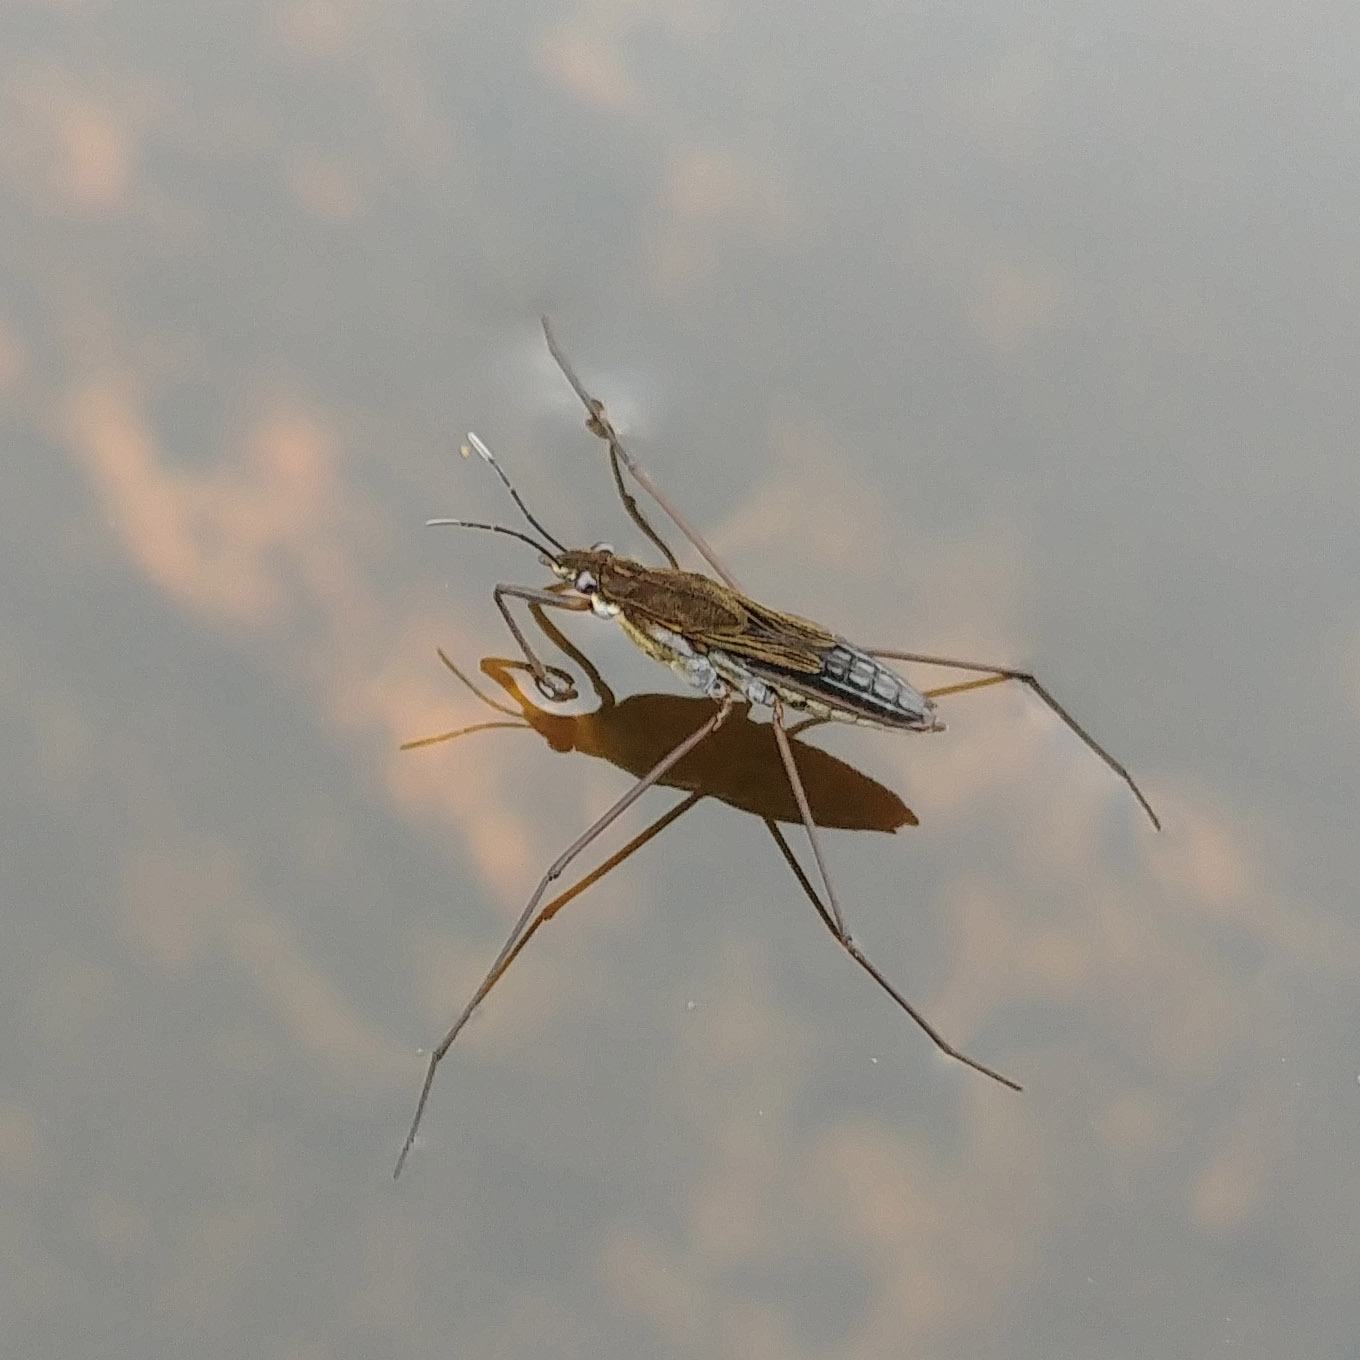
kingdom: Animalia
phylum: Arthropoda
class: Insecta
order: Hemiptera
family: Gerridae
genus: Gerris
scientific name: Gerris
